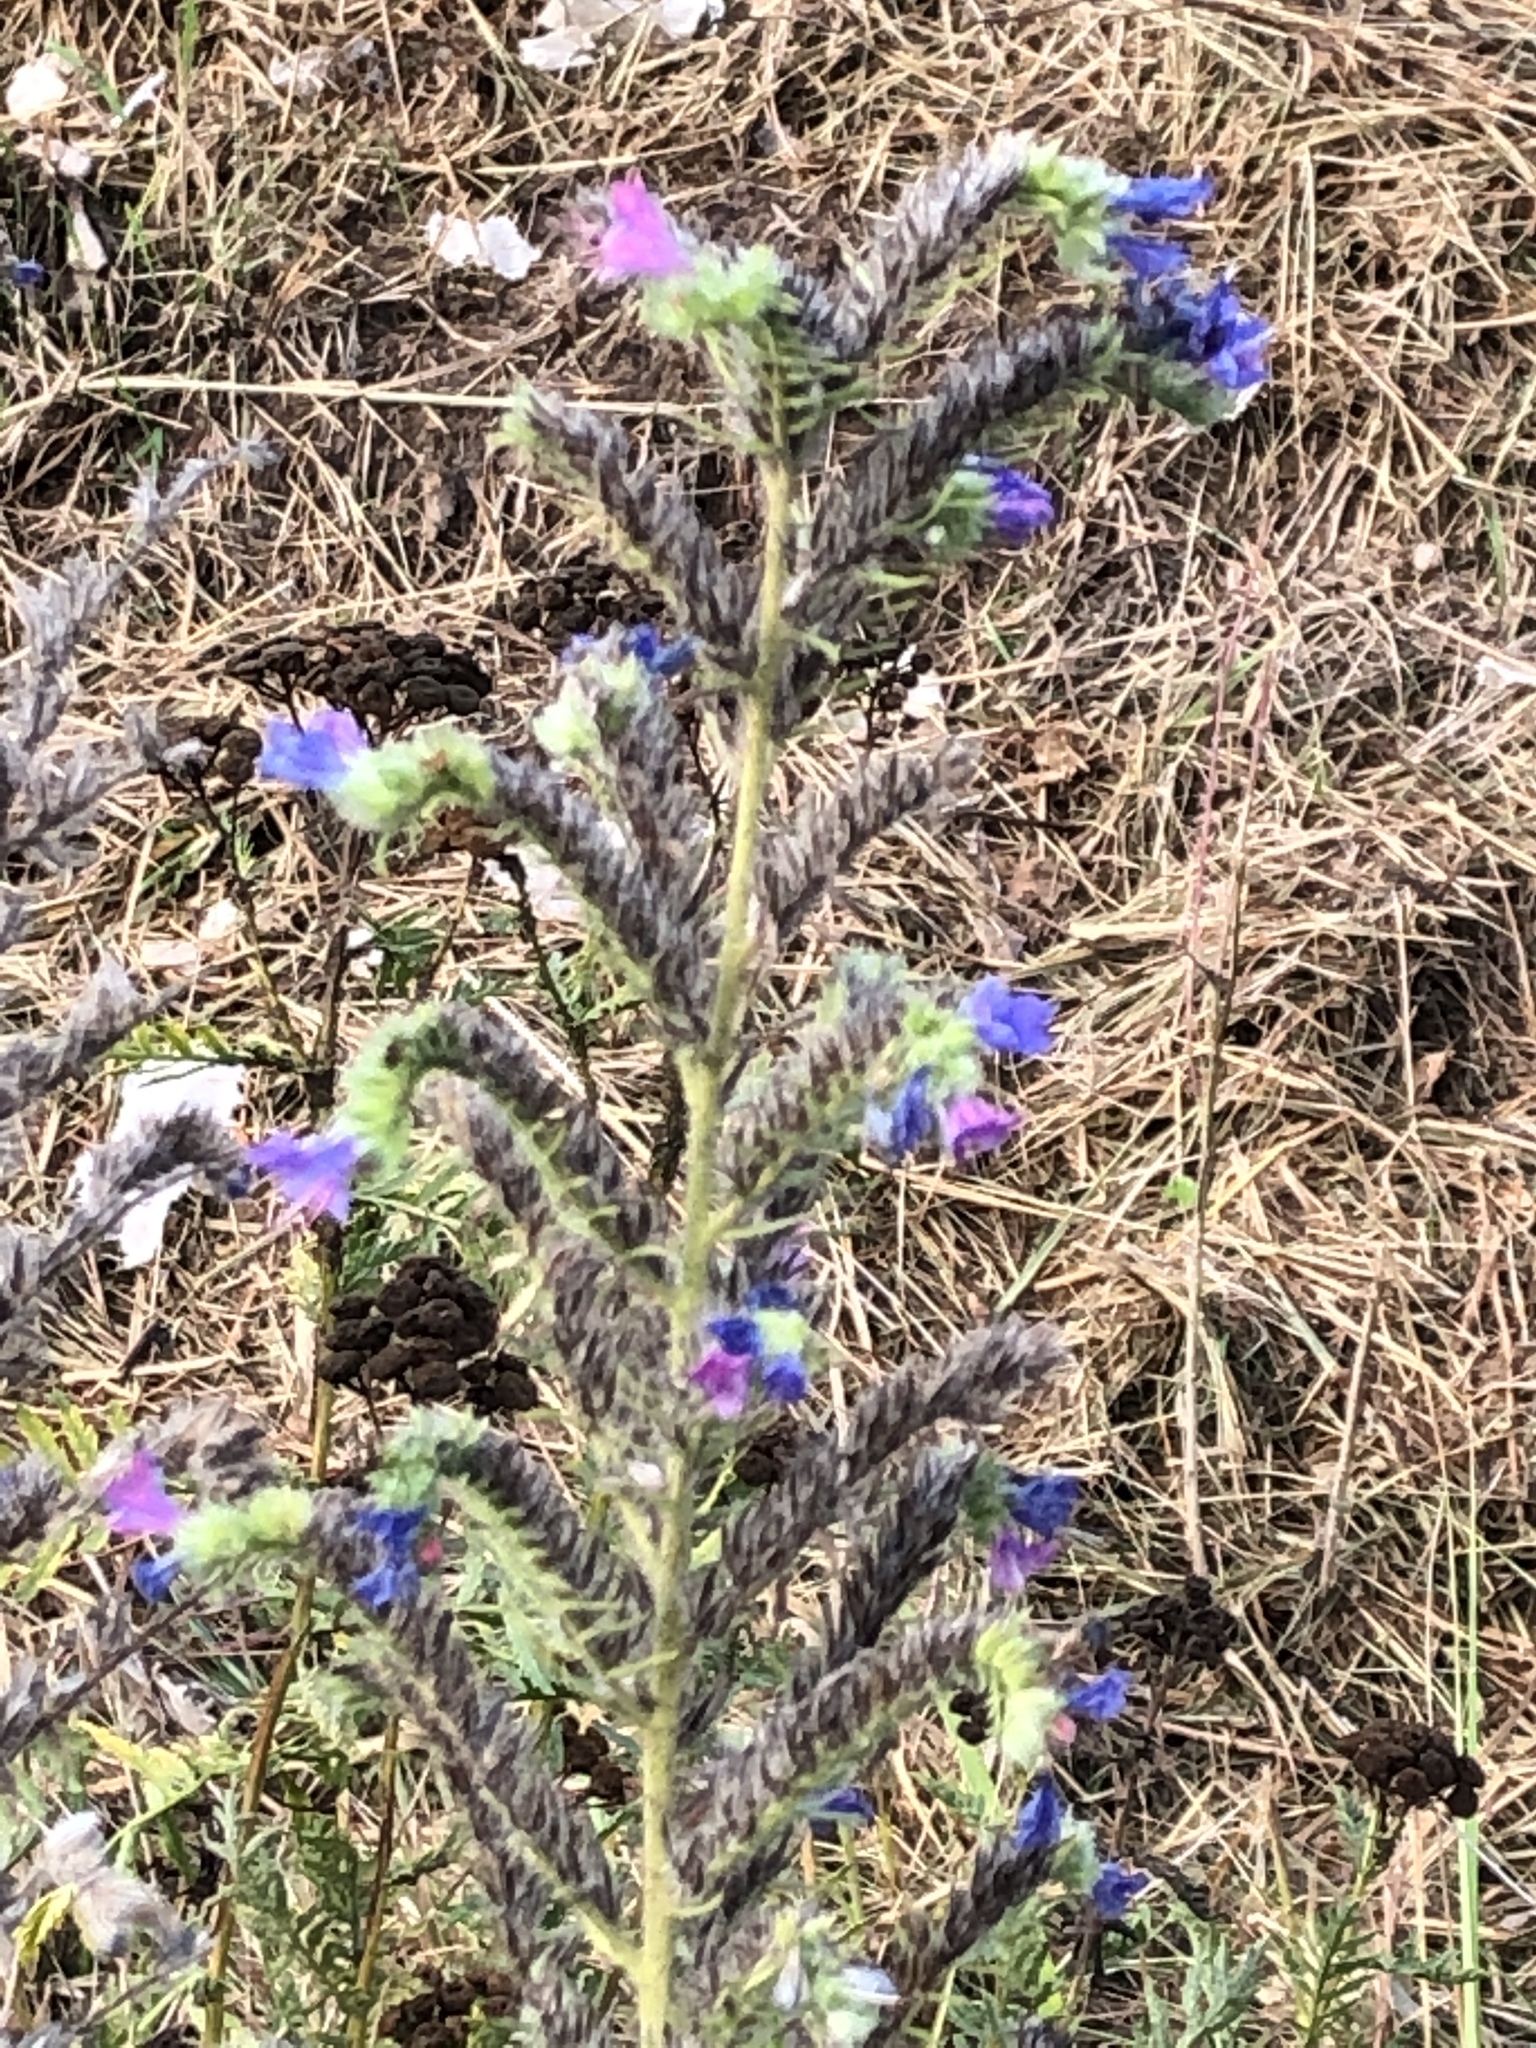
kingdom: Plantae
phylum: Tracheophyta
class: Magnoliopsida
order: Boraginales
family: Boraginaceae
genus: Echium
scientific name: Echium vulgare
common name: Common viper's bugloss
